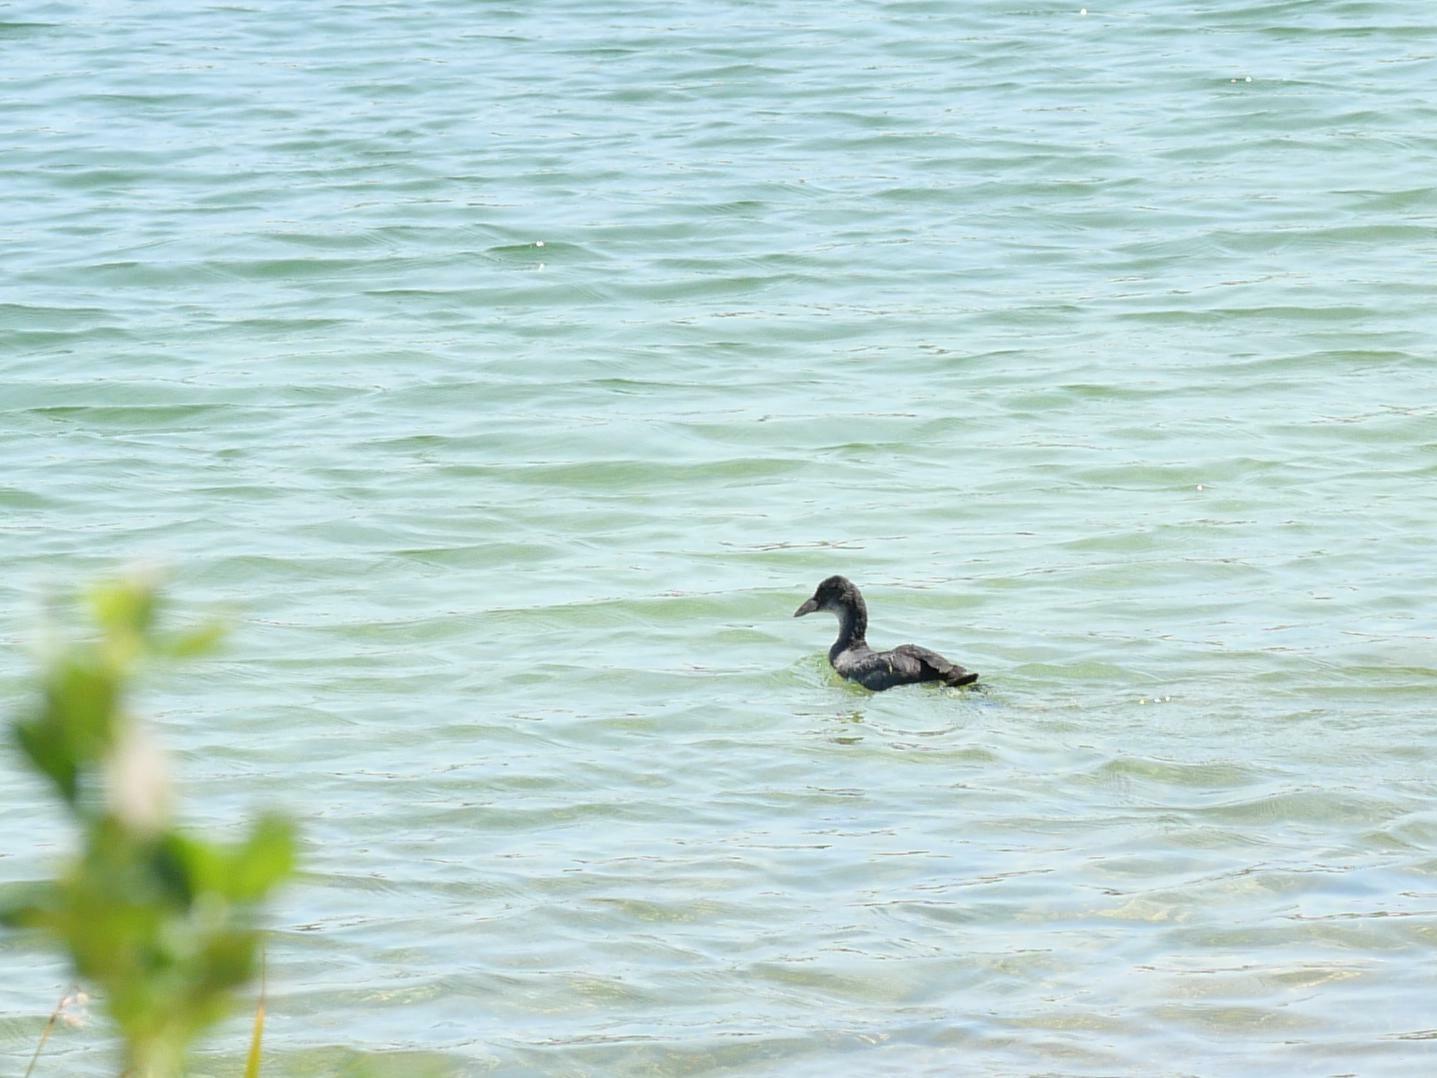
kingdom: Animalia
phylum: Chordata
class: Aves
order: Gruiformes
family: Rallidae
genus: Fulica
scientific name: Fulica atra
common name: Eurasian coot
